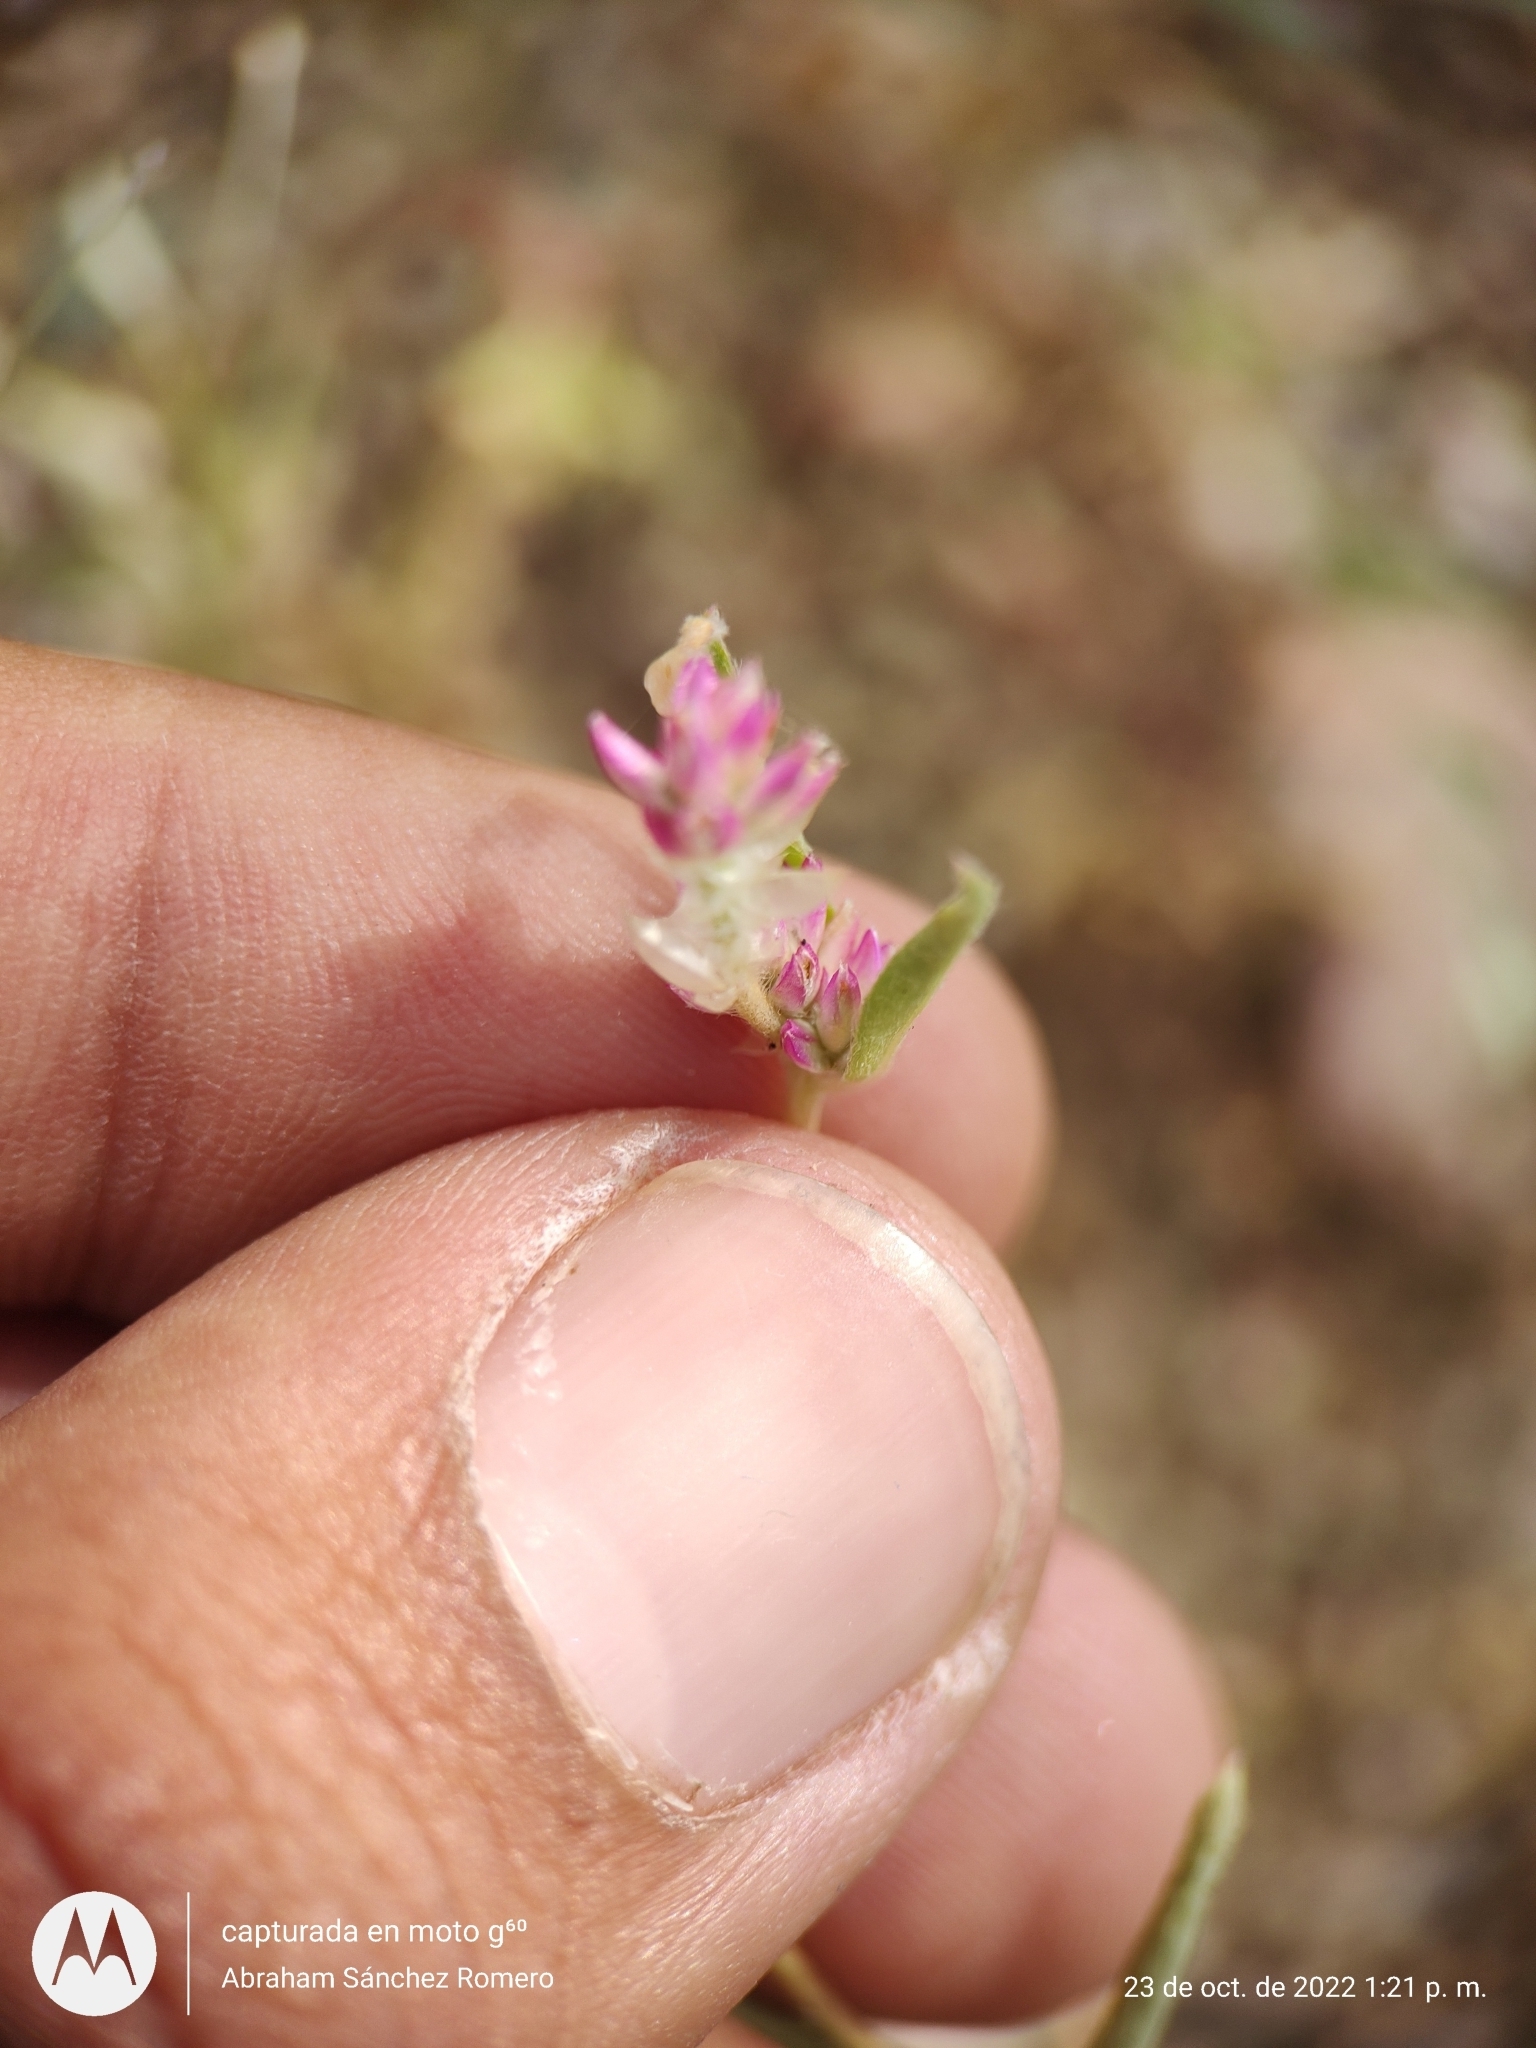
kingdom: Plantae
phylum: Tracheophyta
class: Magnoliopsida
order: Caryophyllales
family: Amaranthaceae
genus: Gomphrena
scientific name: Gomphrena sonorae
